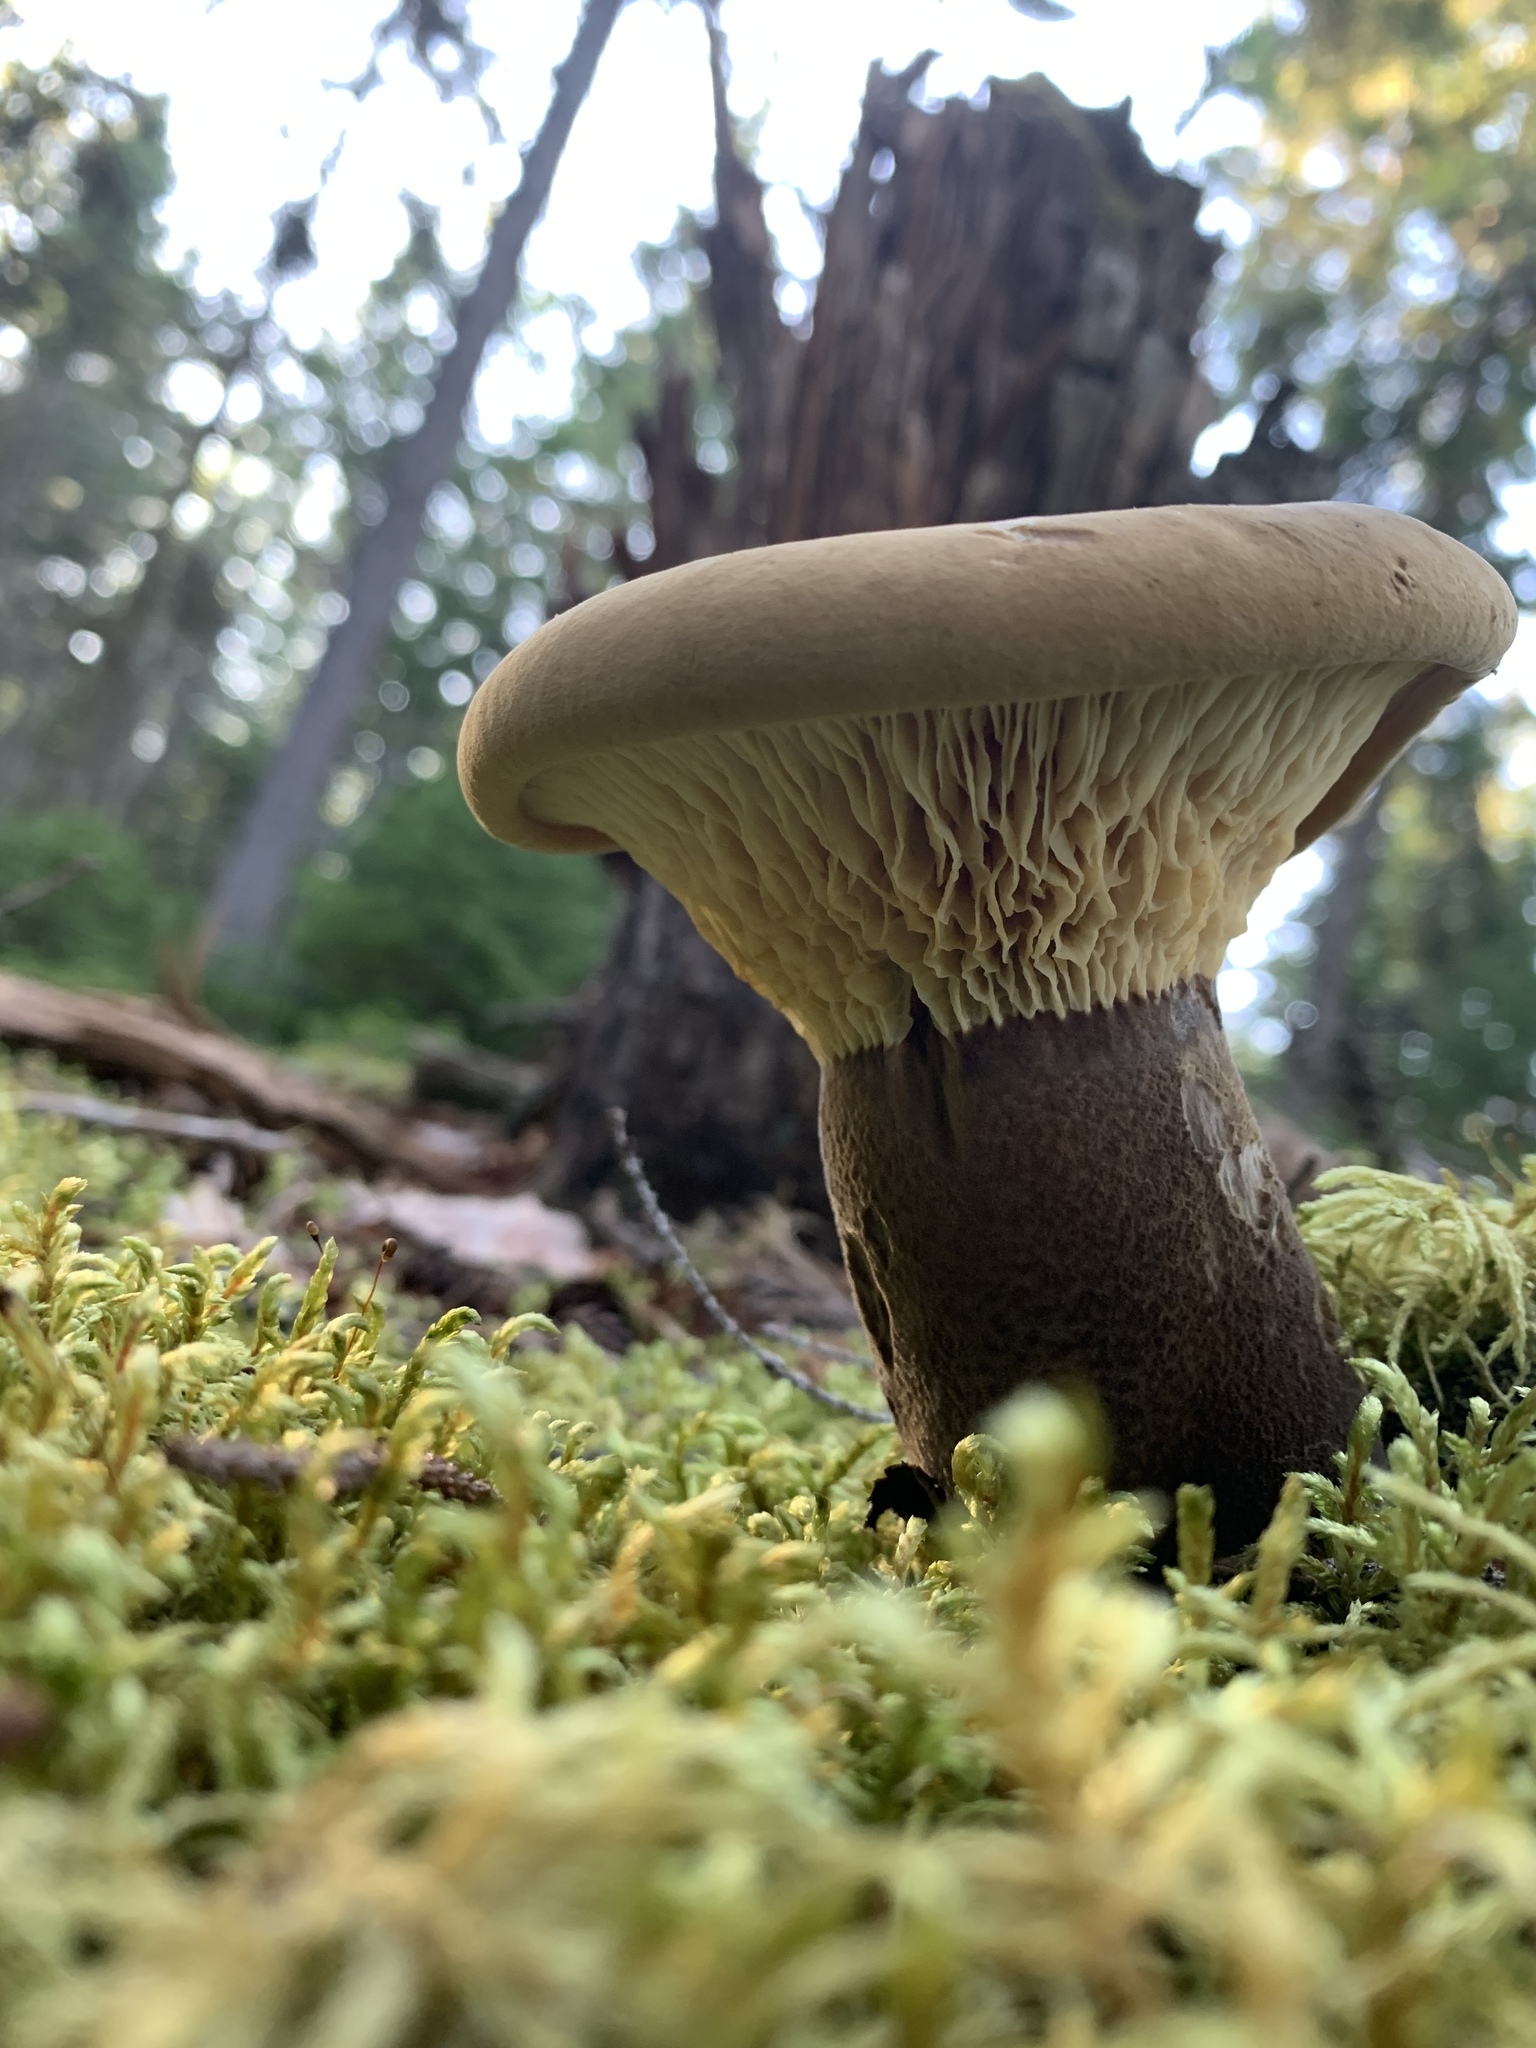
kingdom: Fungi
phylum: Basidiomycota
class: Agaricomycetes
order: Boletales
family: Tapinellaceae
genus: Tapinella
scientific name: Tapinella atrotomentosa
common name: Velvet rollrim
